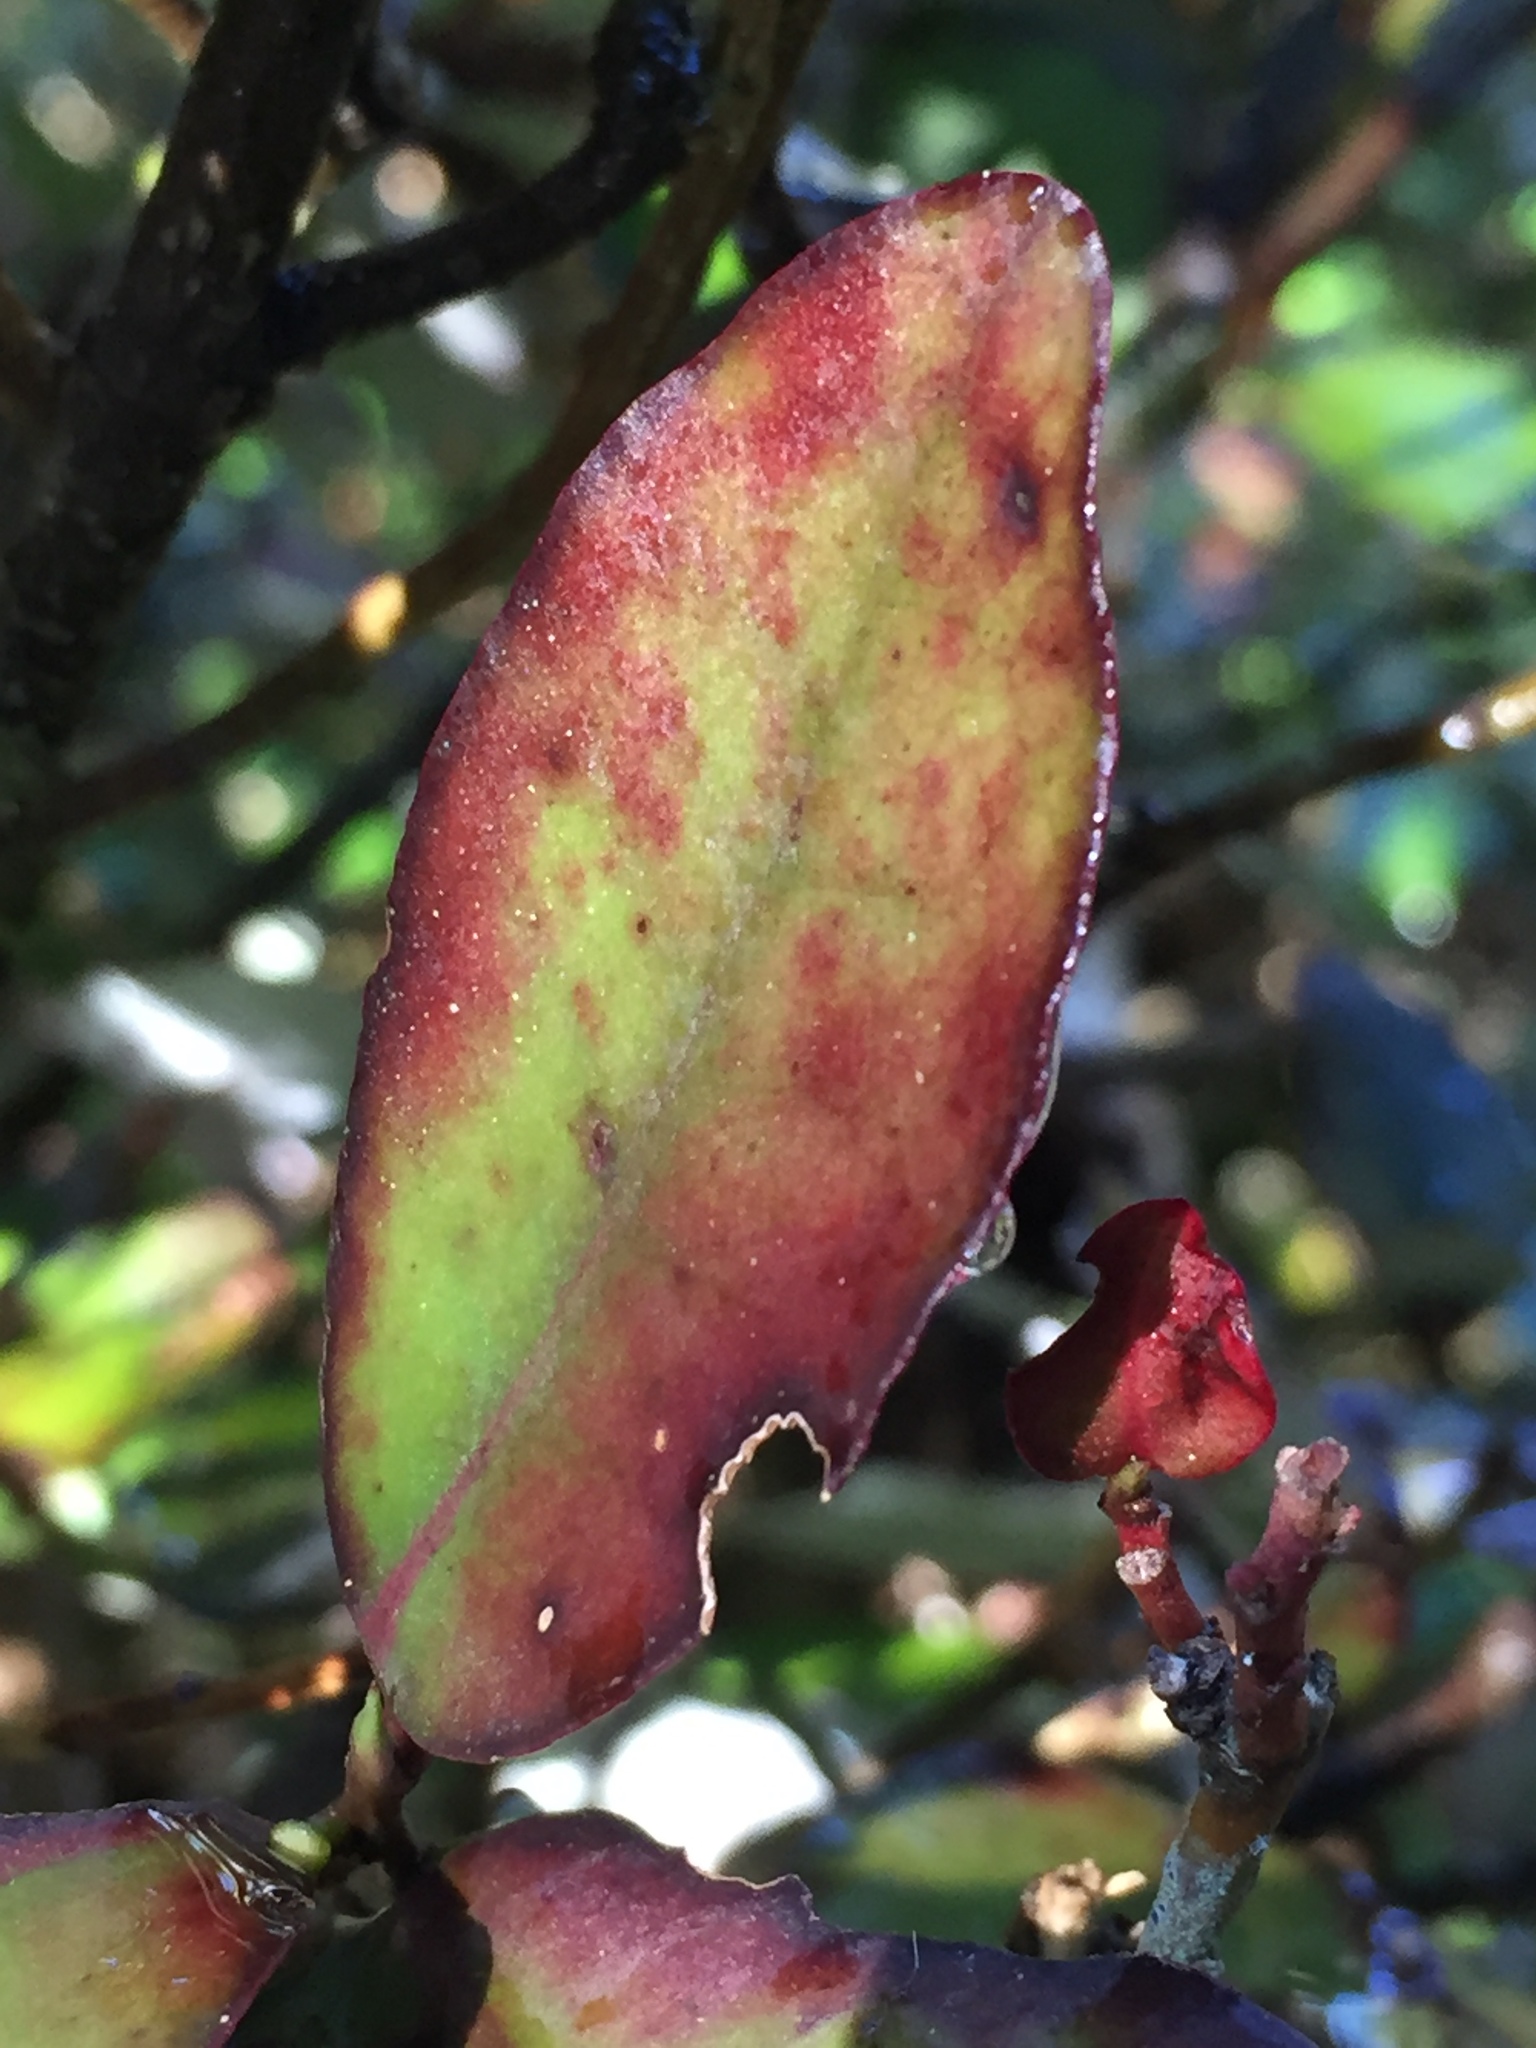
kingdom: Plantae
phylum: Tracheophyta
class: Magnoliopsida
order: Canellales
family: Winteraceae
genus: Pseudowintera
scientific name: Pseudowintera colorata
